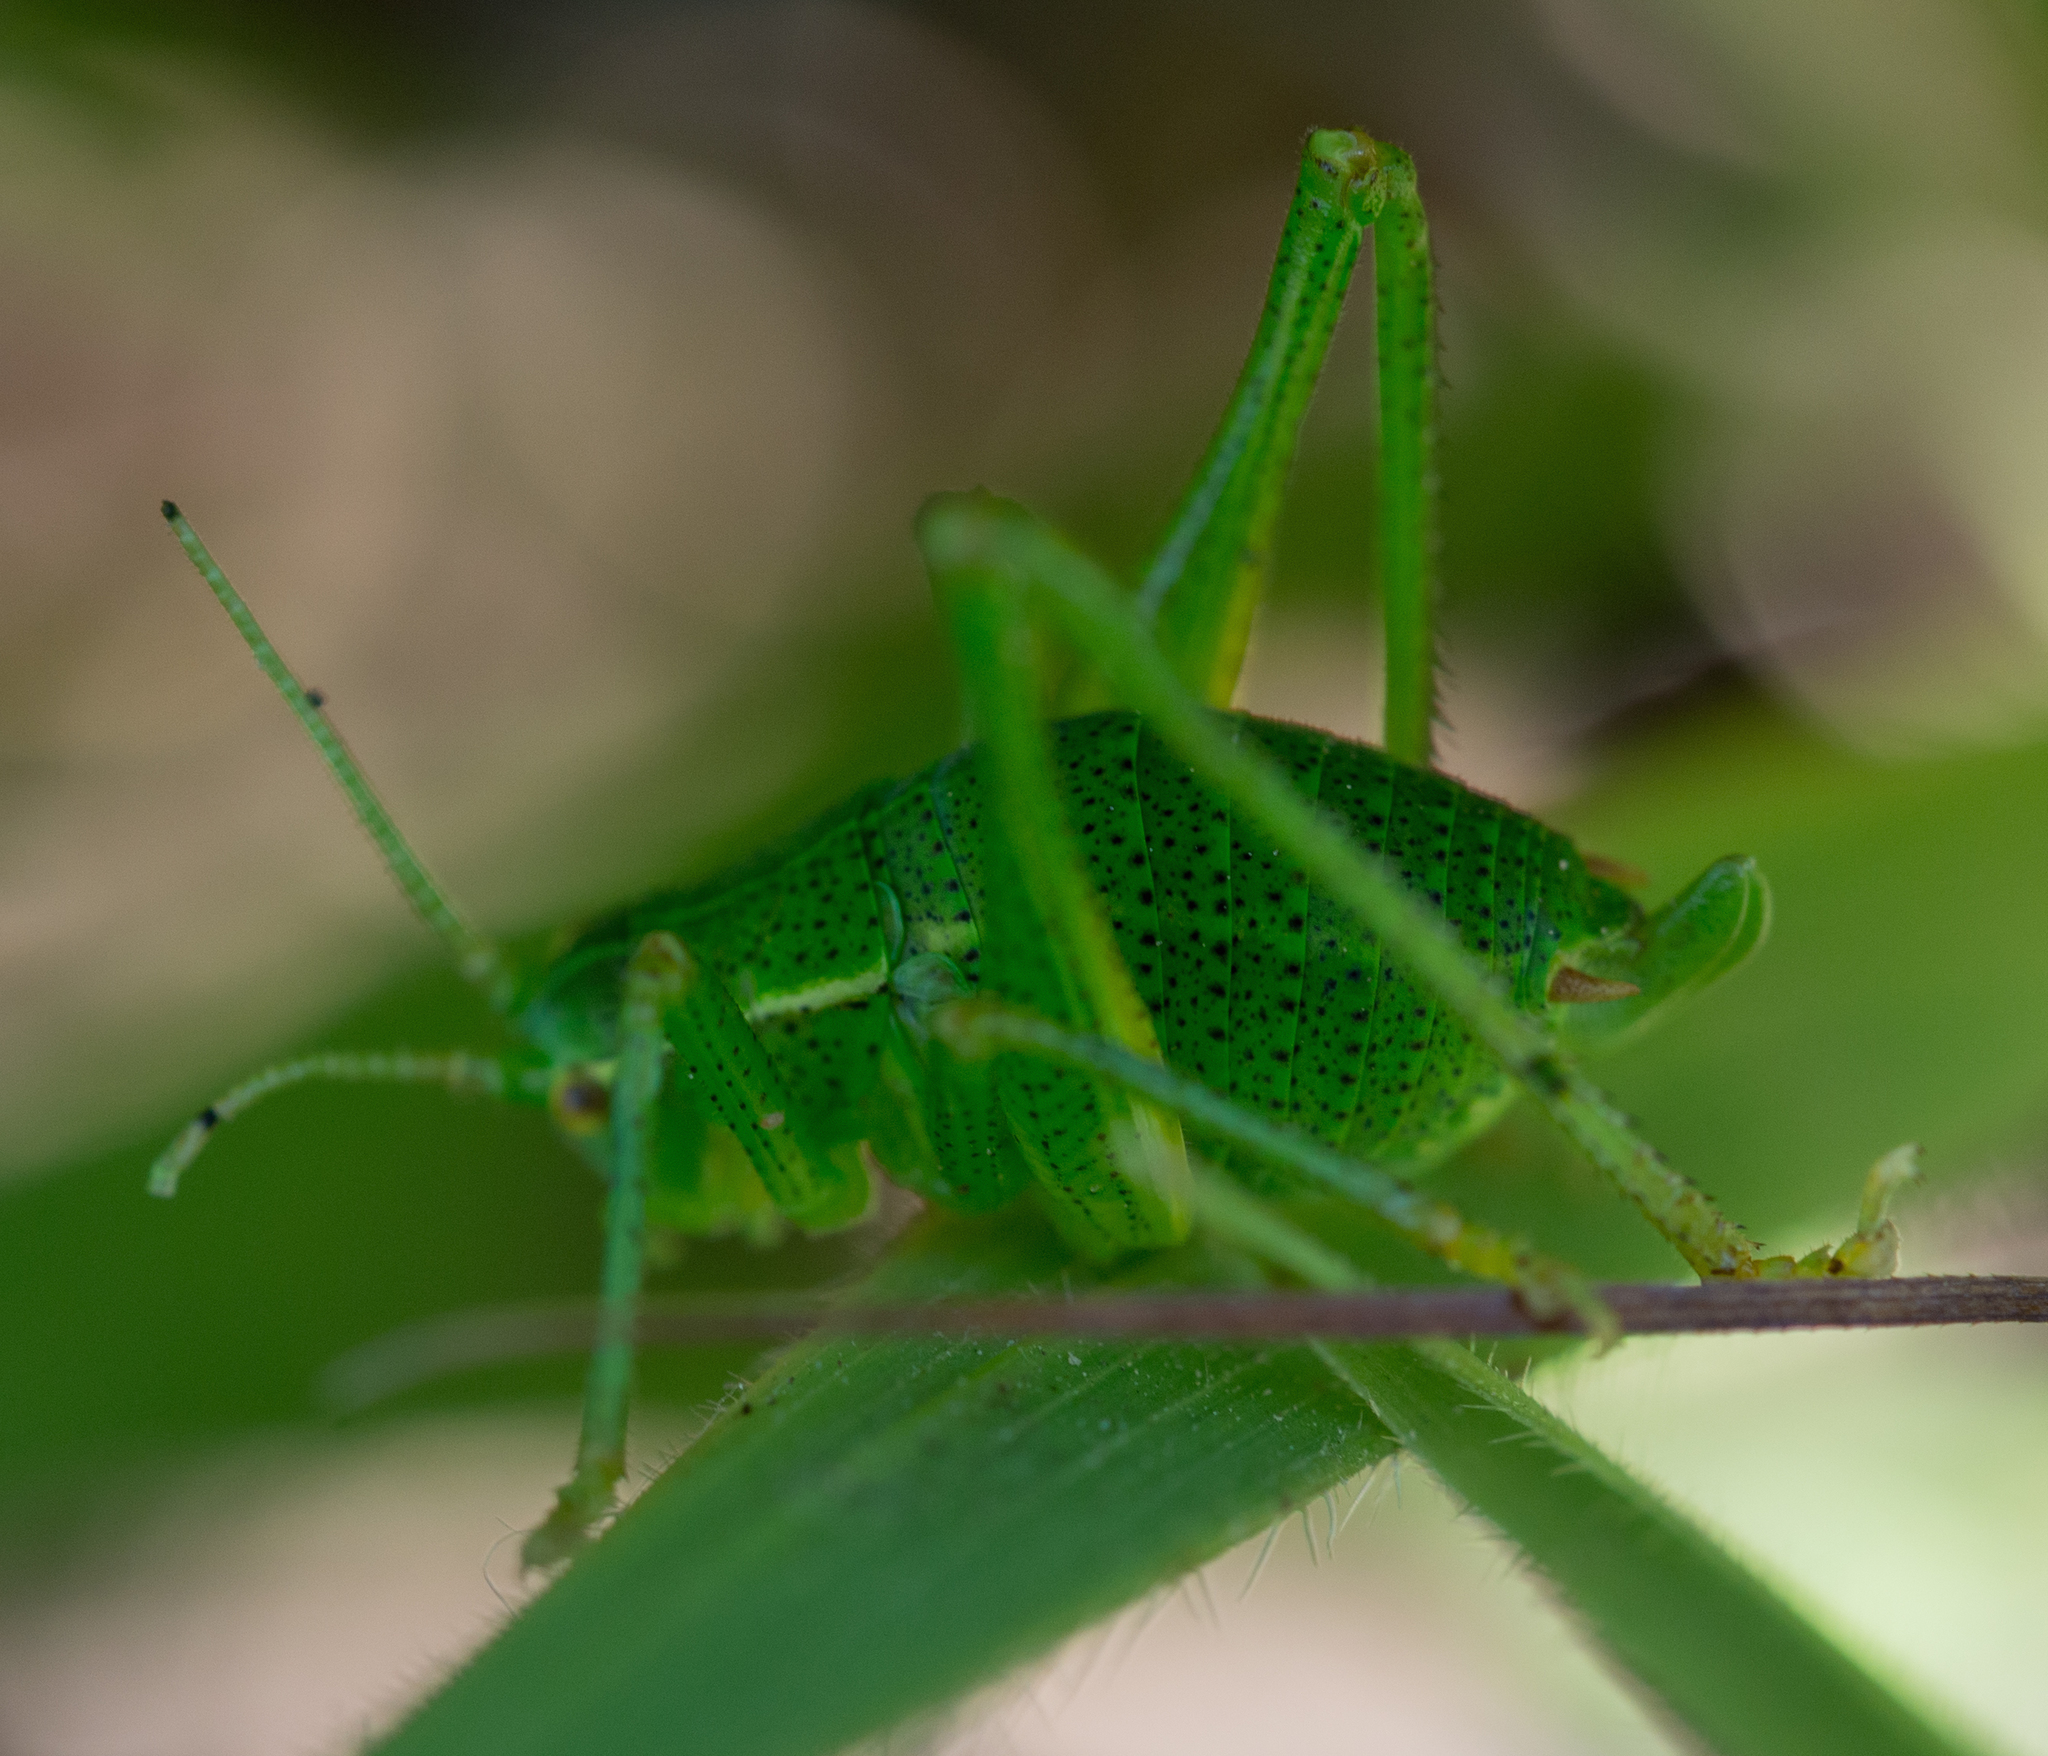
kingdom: Animalia
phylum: Arthropoda
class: Insecta
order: Orthoptera
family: Tettigoniidae
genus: Barbitistes
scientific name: Barbitistes serricauda
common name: Saw-tailed bush-cricket
